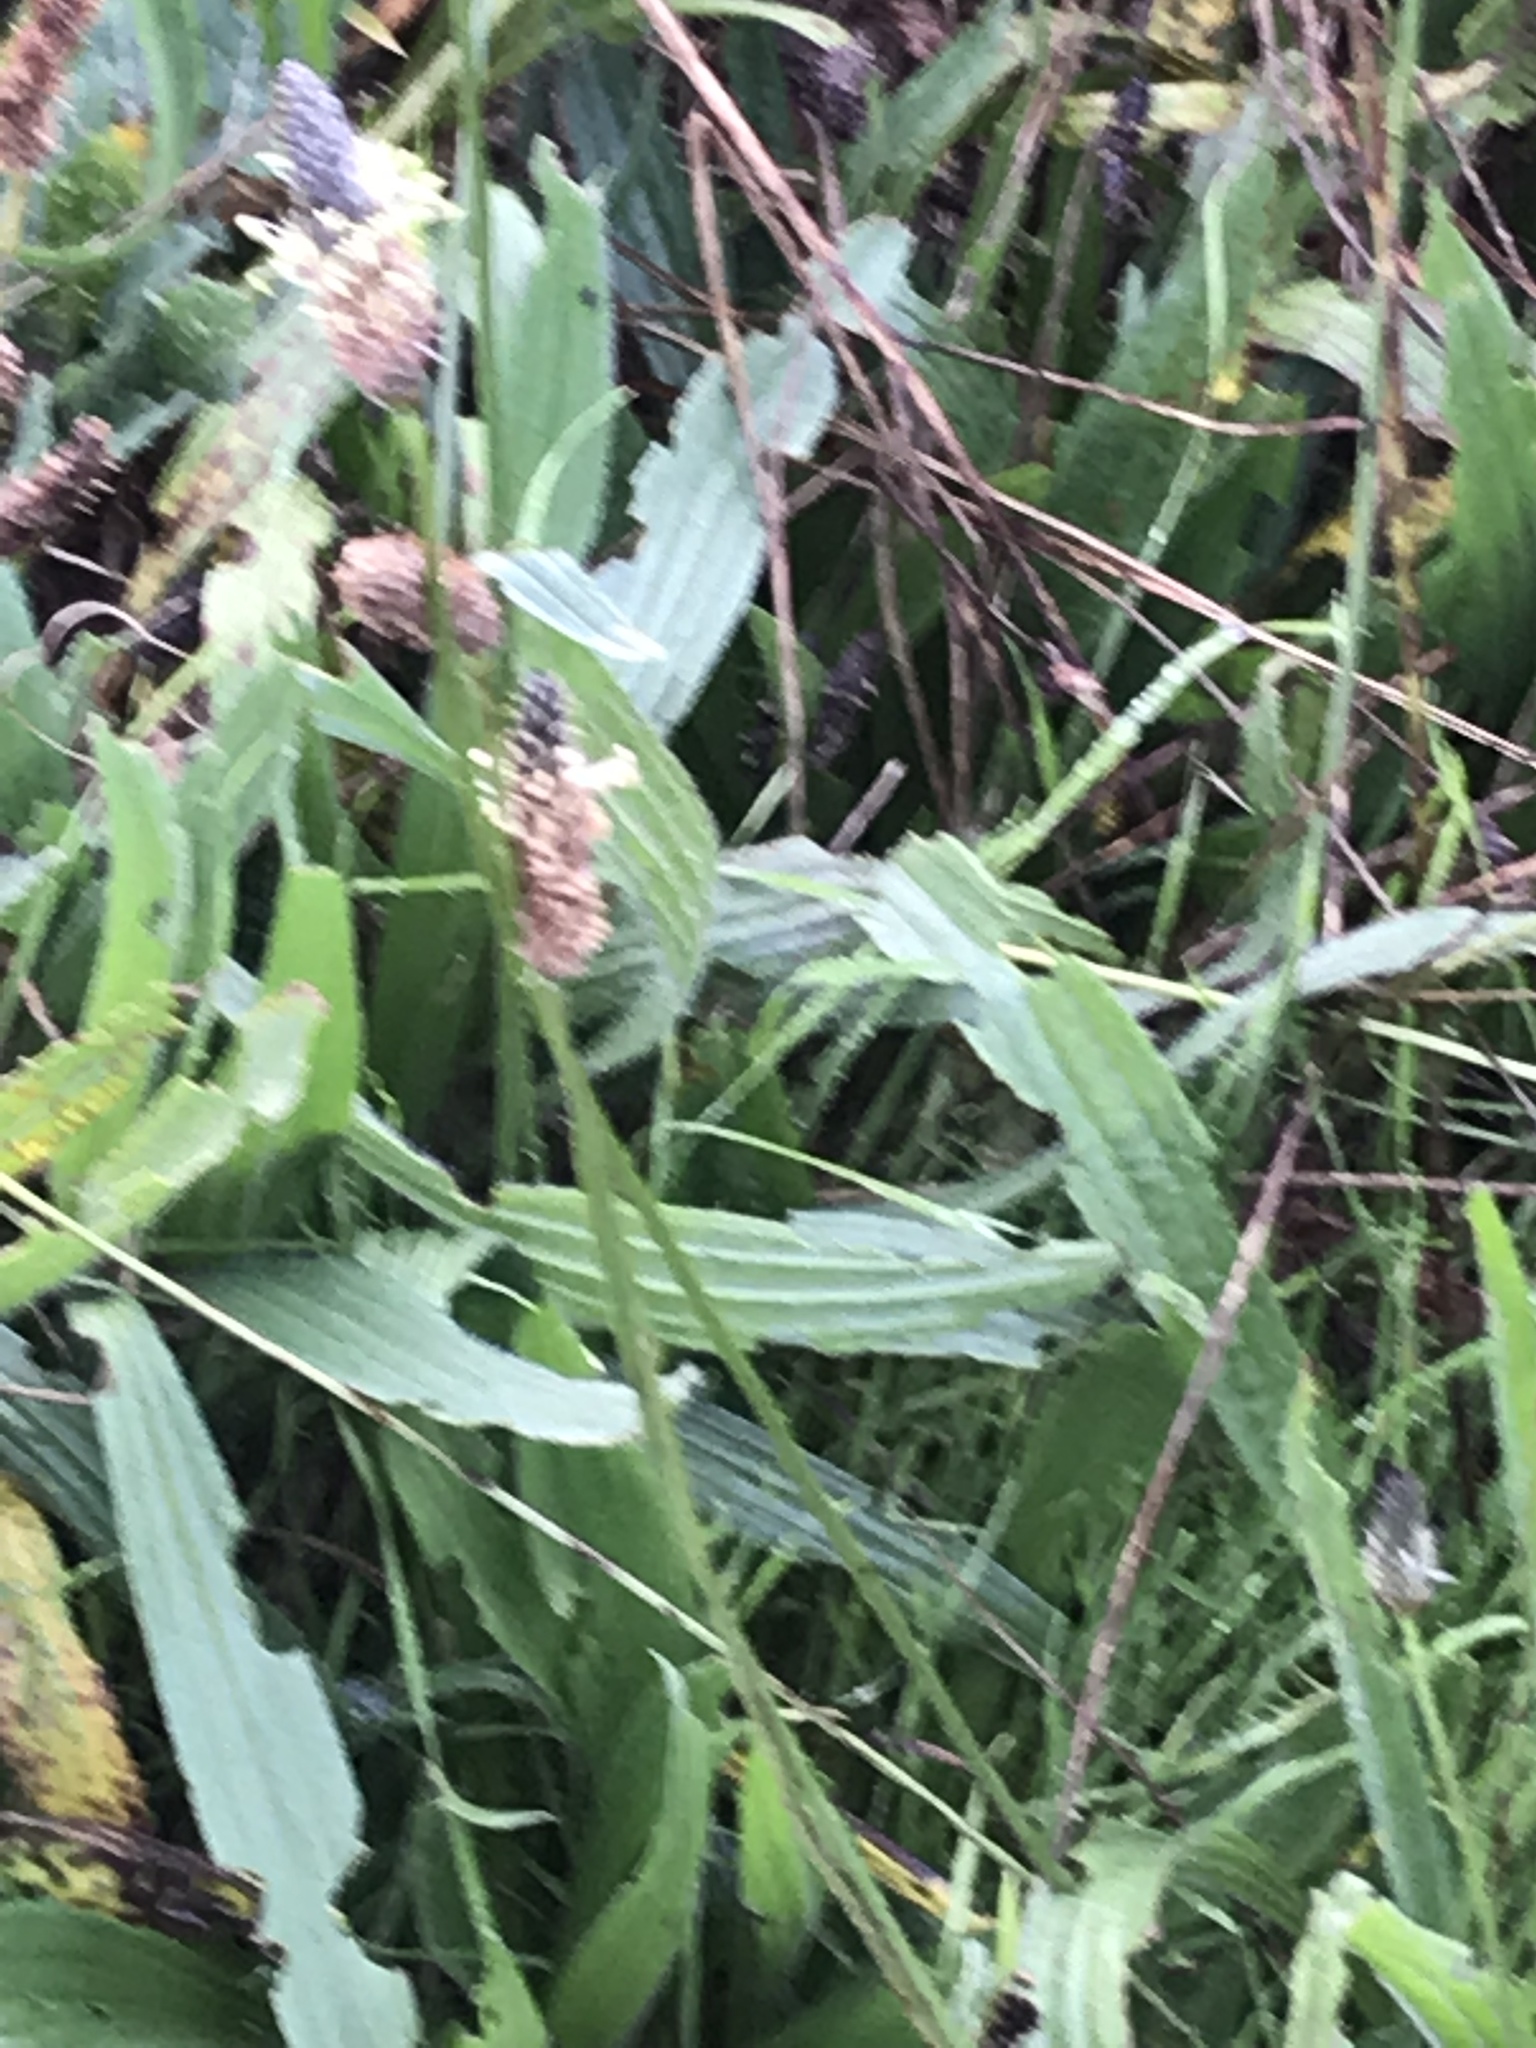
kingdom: Plantae
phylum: Tracheophyta
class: Magnoliopsida
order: Lamiales
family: Plantaginaceae
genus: Plantago
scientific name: Plantago lanceolata
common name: Ribwort plantain
